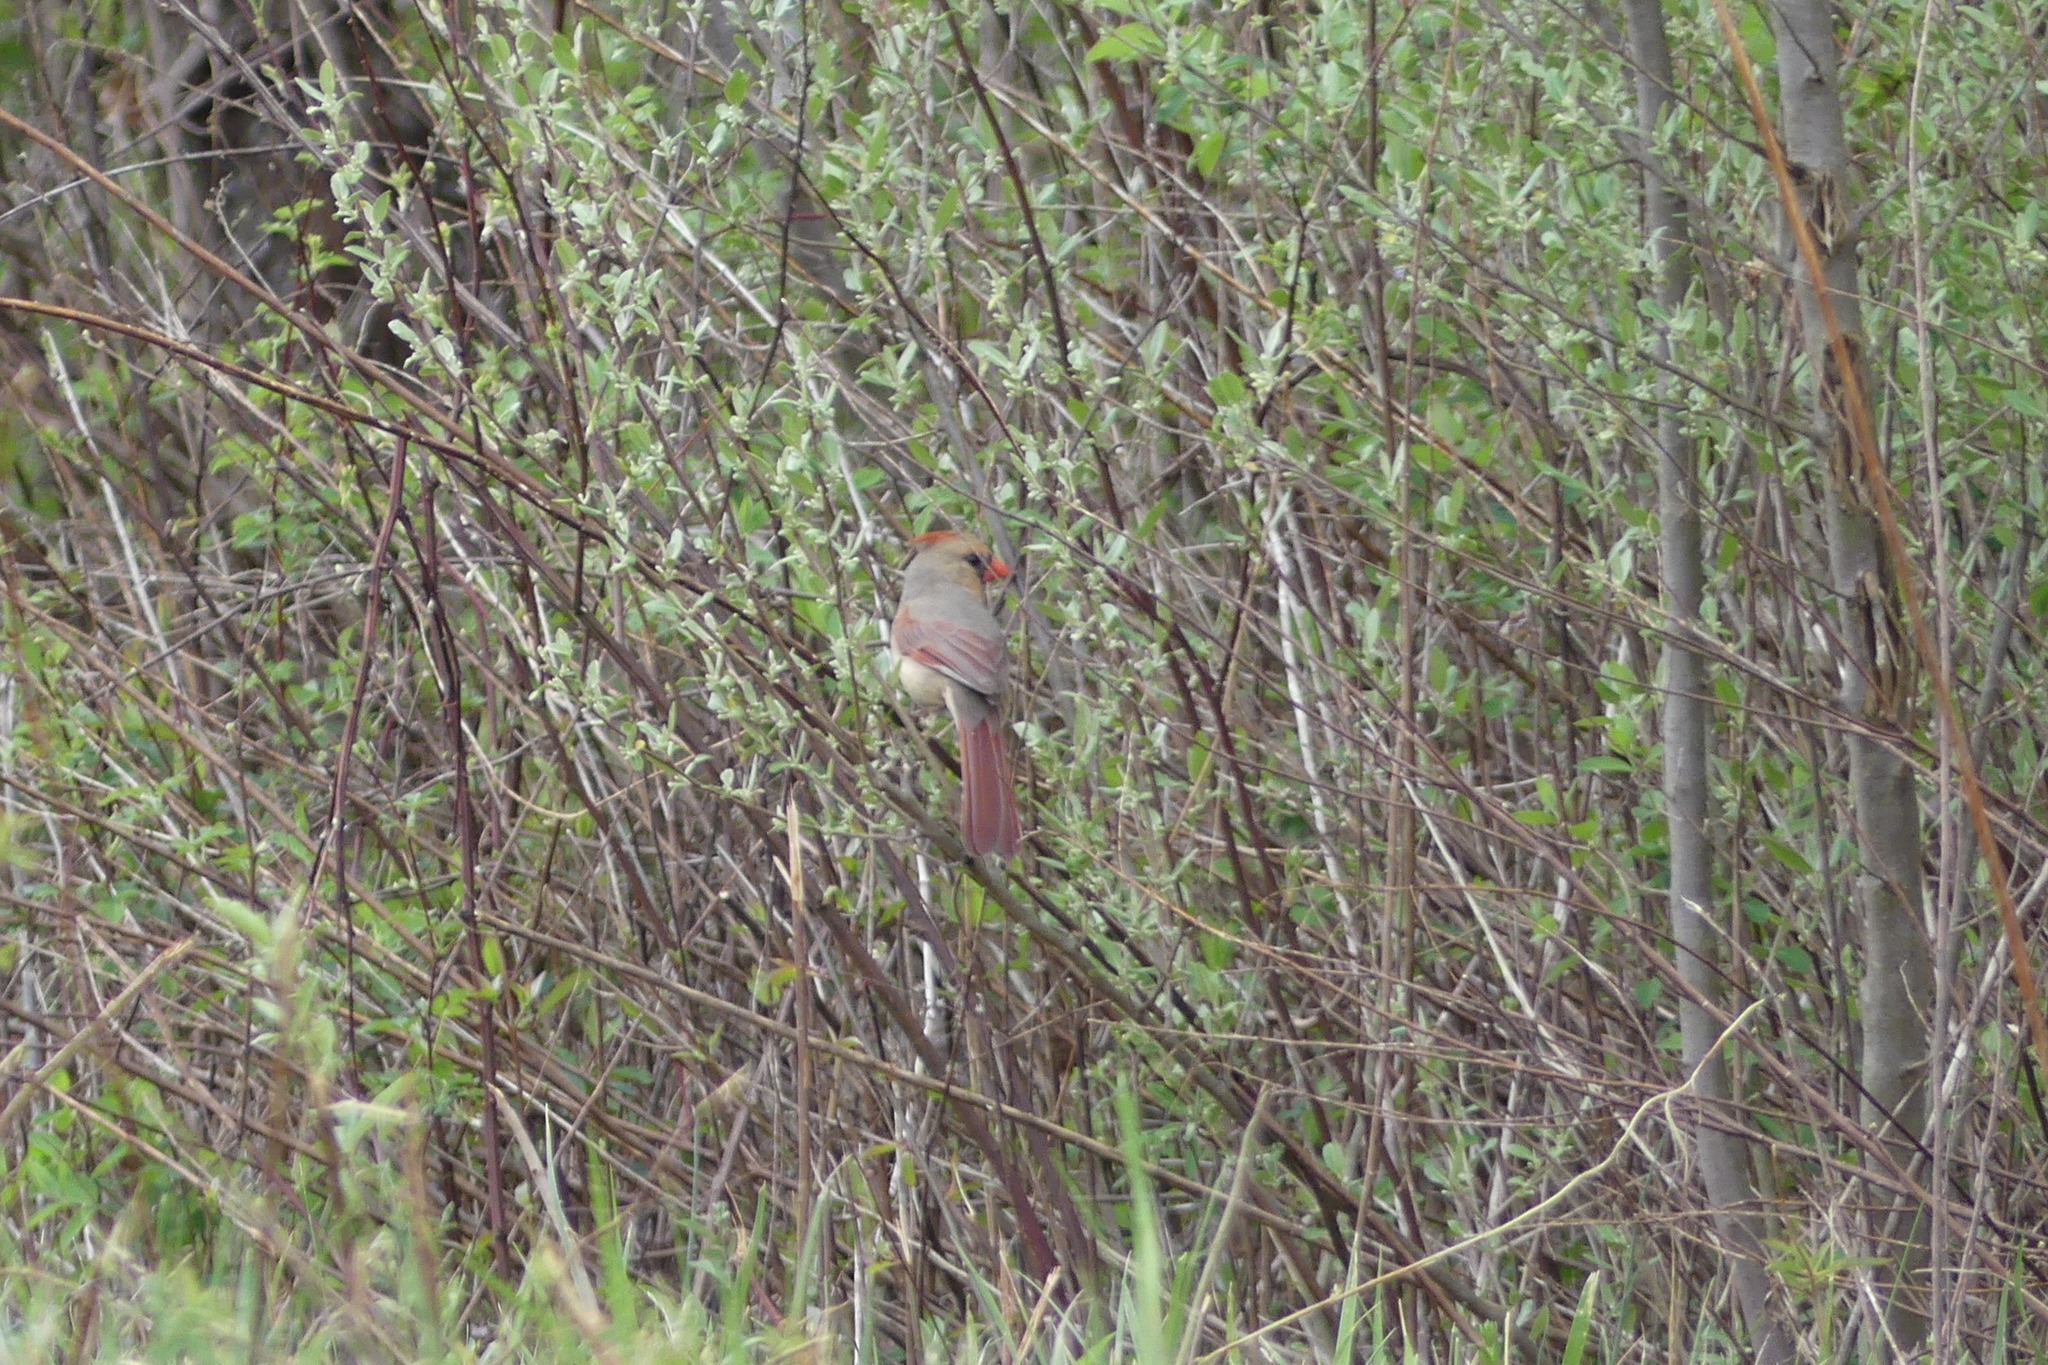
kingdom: Animalia
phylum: Chordata
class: Aves
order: Passeriformes
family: Cardinalidae
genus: Cardinalis
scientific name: Cardinalis cardinalis
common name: Northern cardinal
